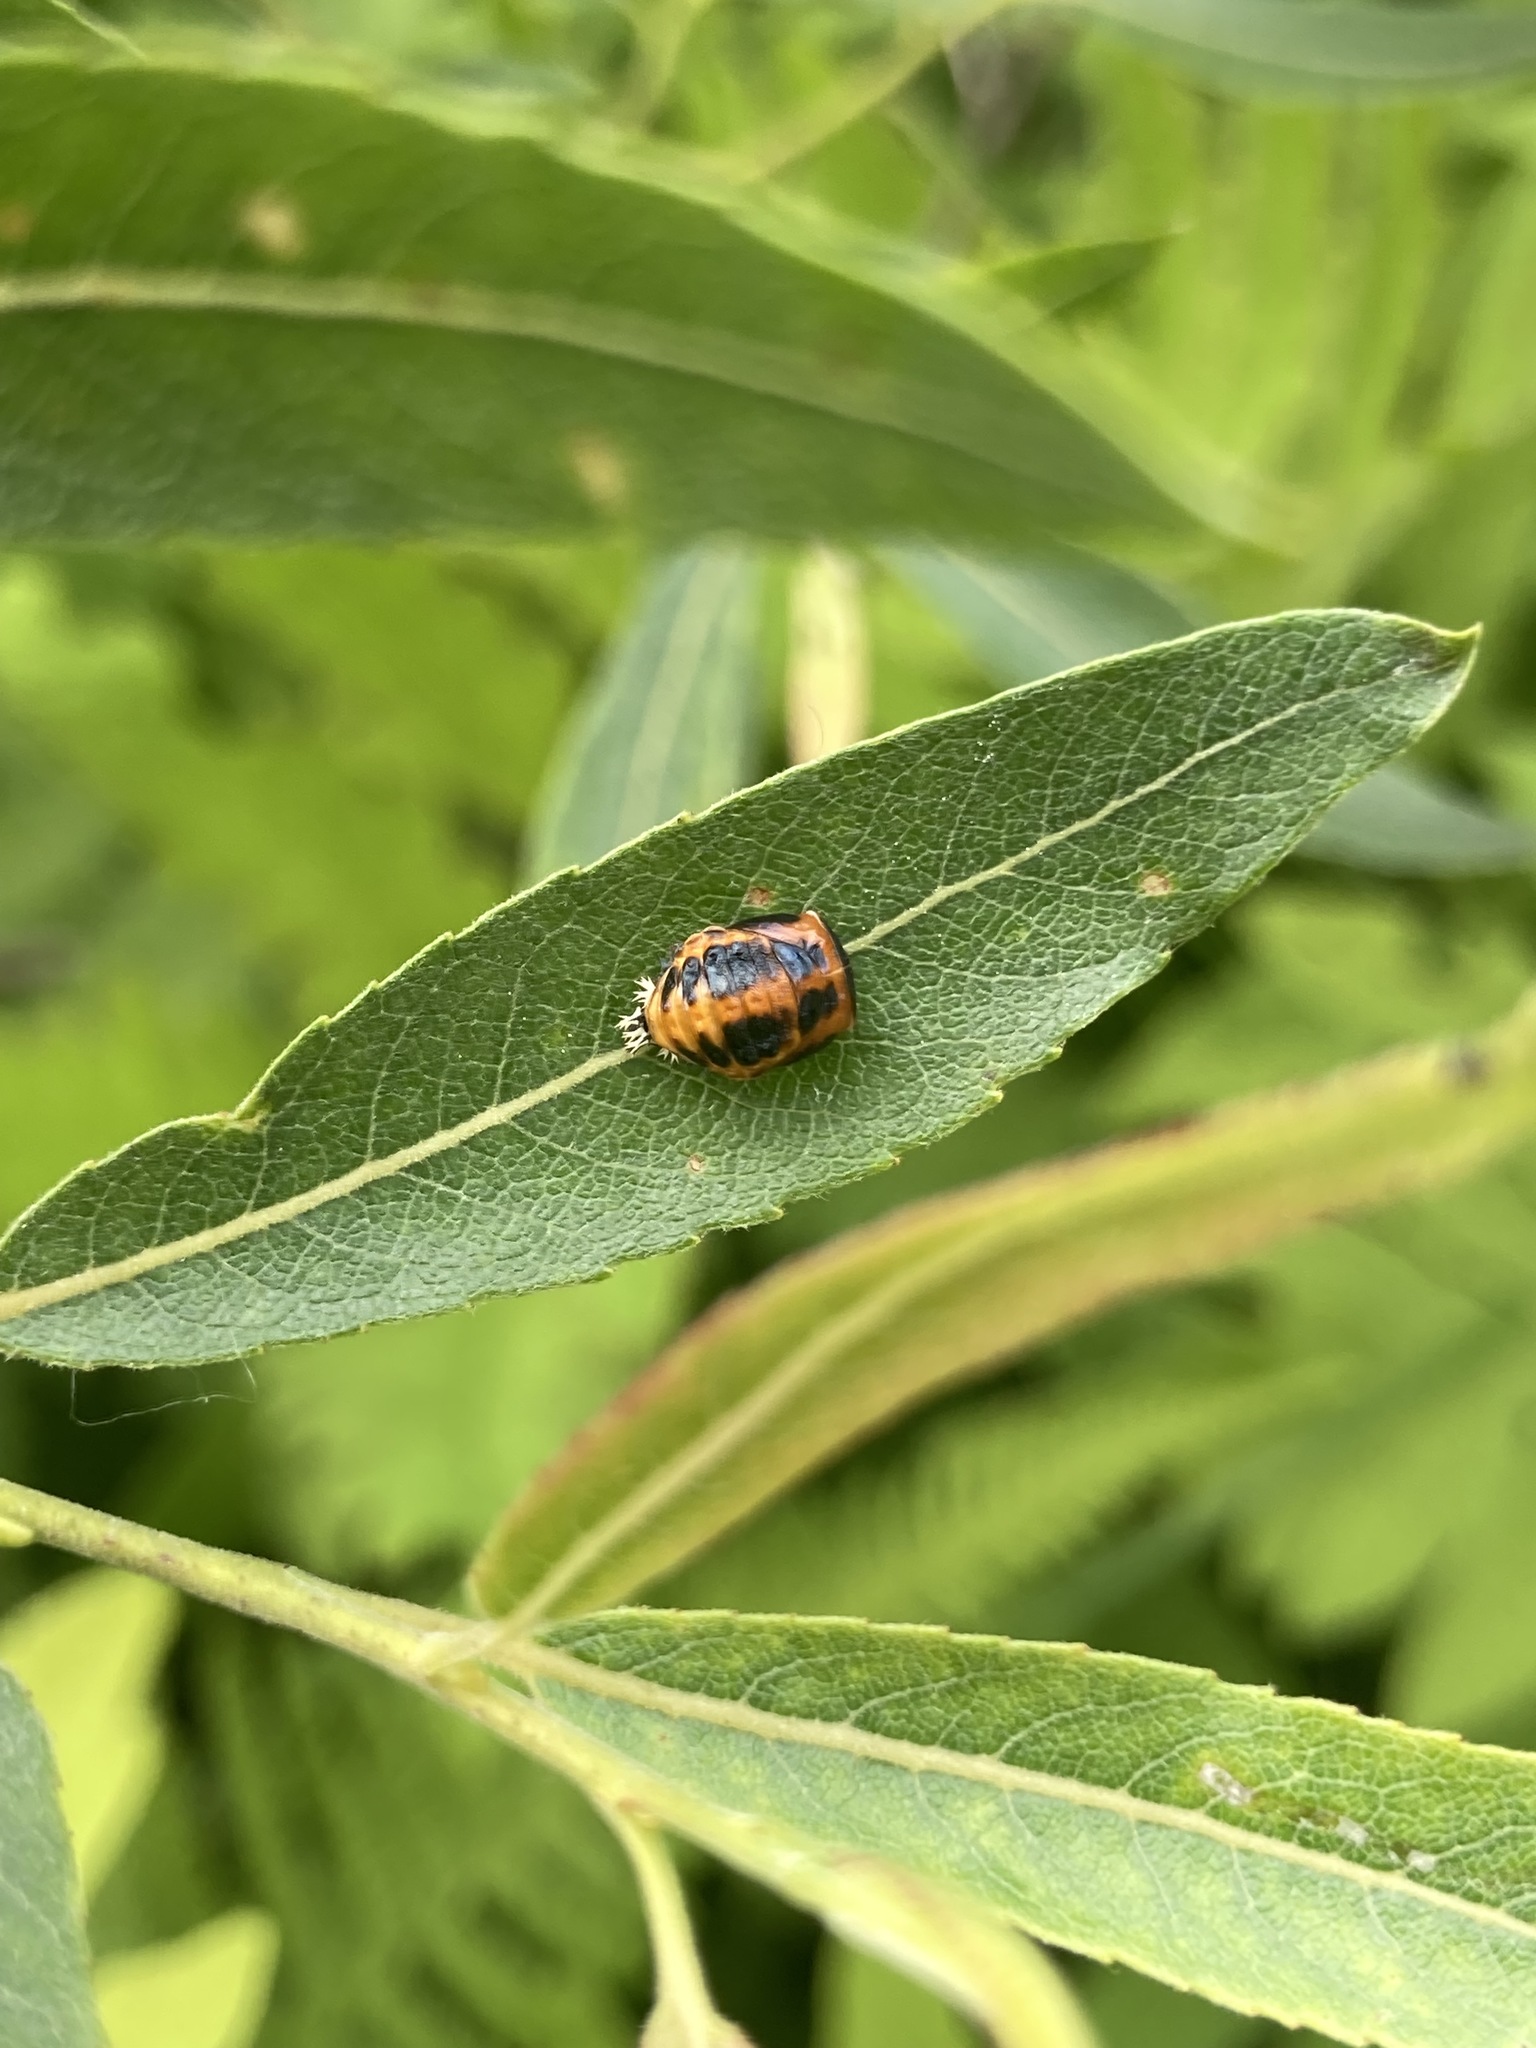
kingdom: Animalia
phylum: Arthropoda
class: Insecta
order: Coleoptera
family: Coccinellidae
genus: Harmonia
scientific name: Harmonia axyridis
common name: Harlequin ladybird
